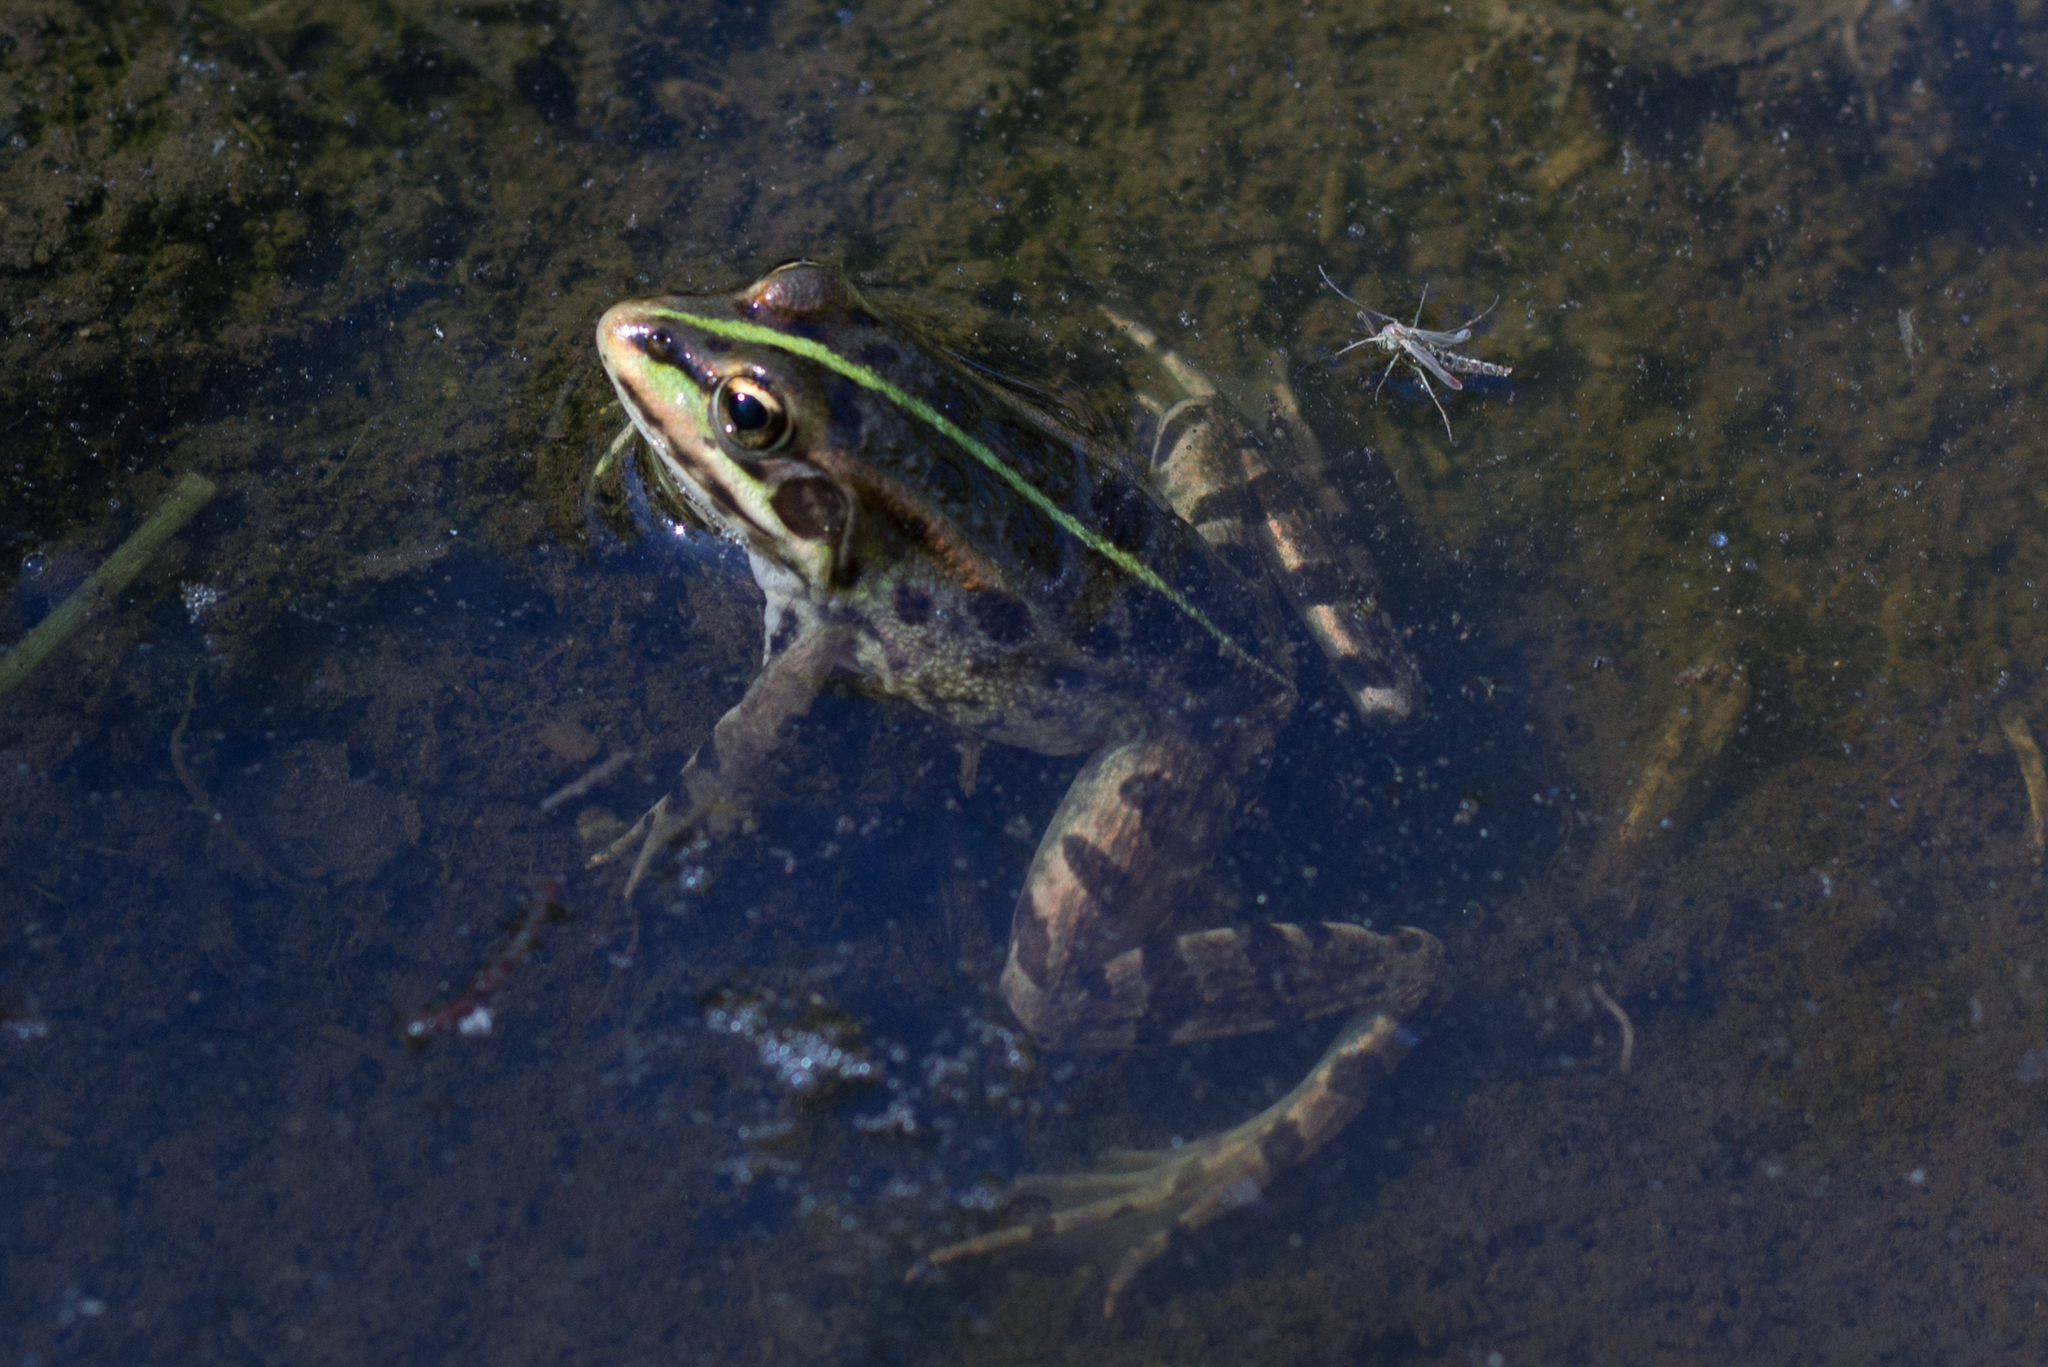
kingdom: Animalia
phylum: Chordata
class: Amphibia
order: Anura
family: Ranidae
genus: Pelophylax
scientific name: Pelophylax perezi
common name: Perez's frog
